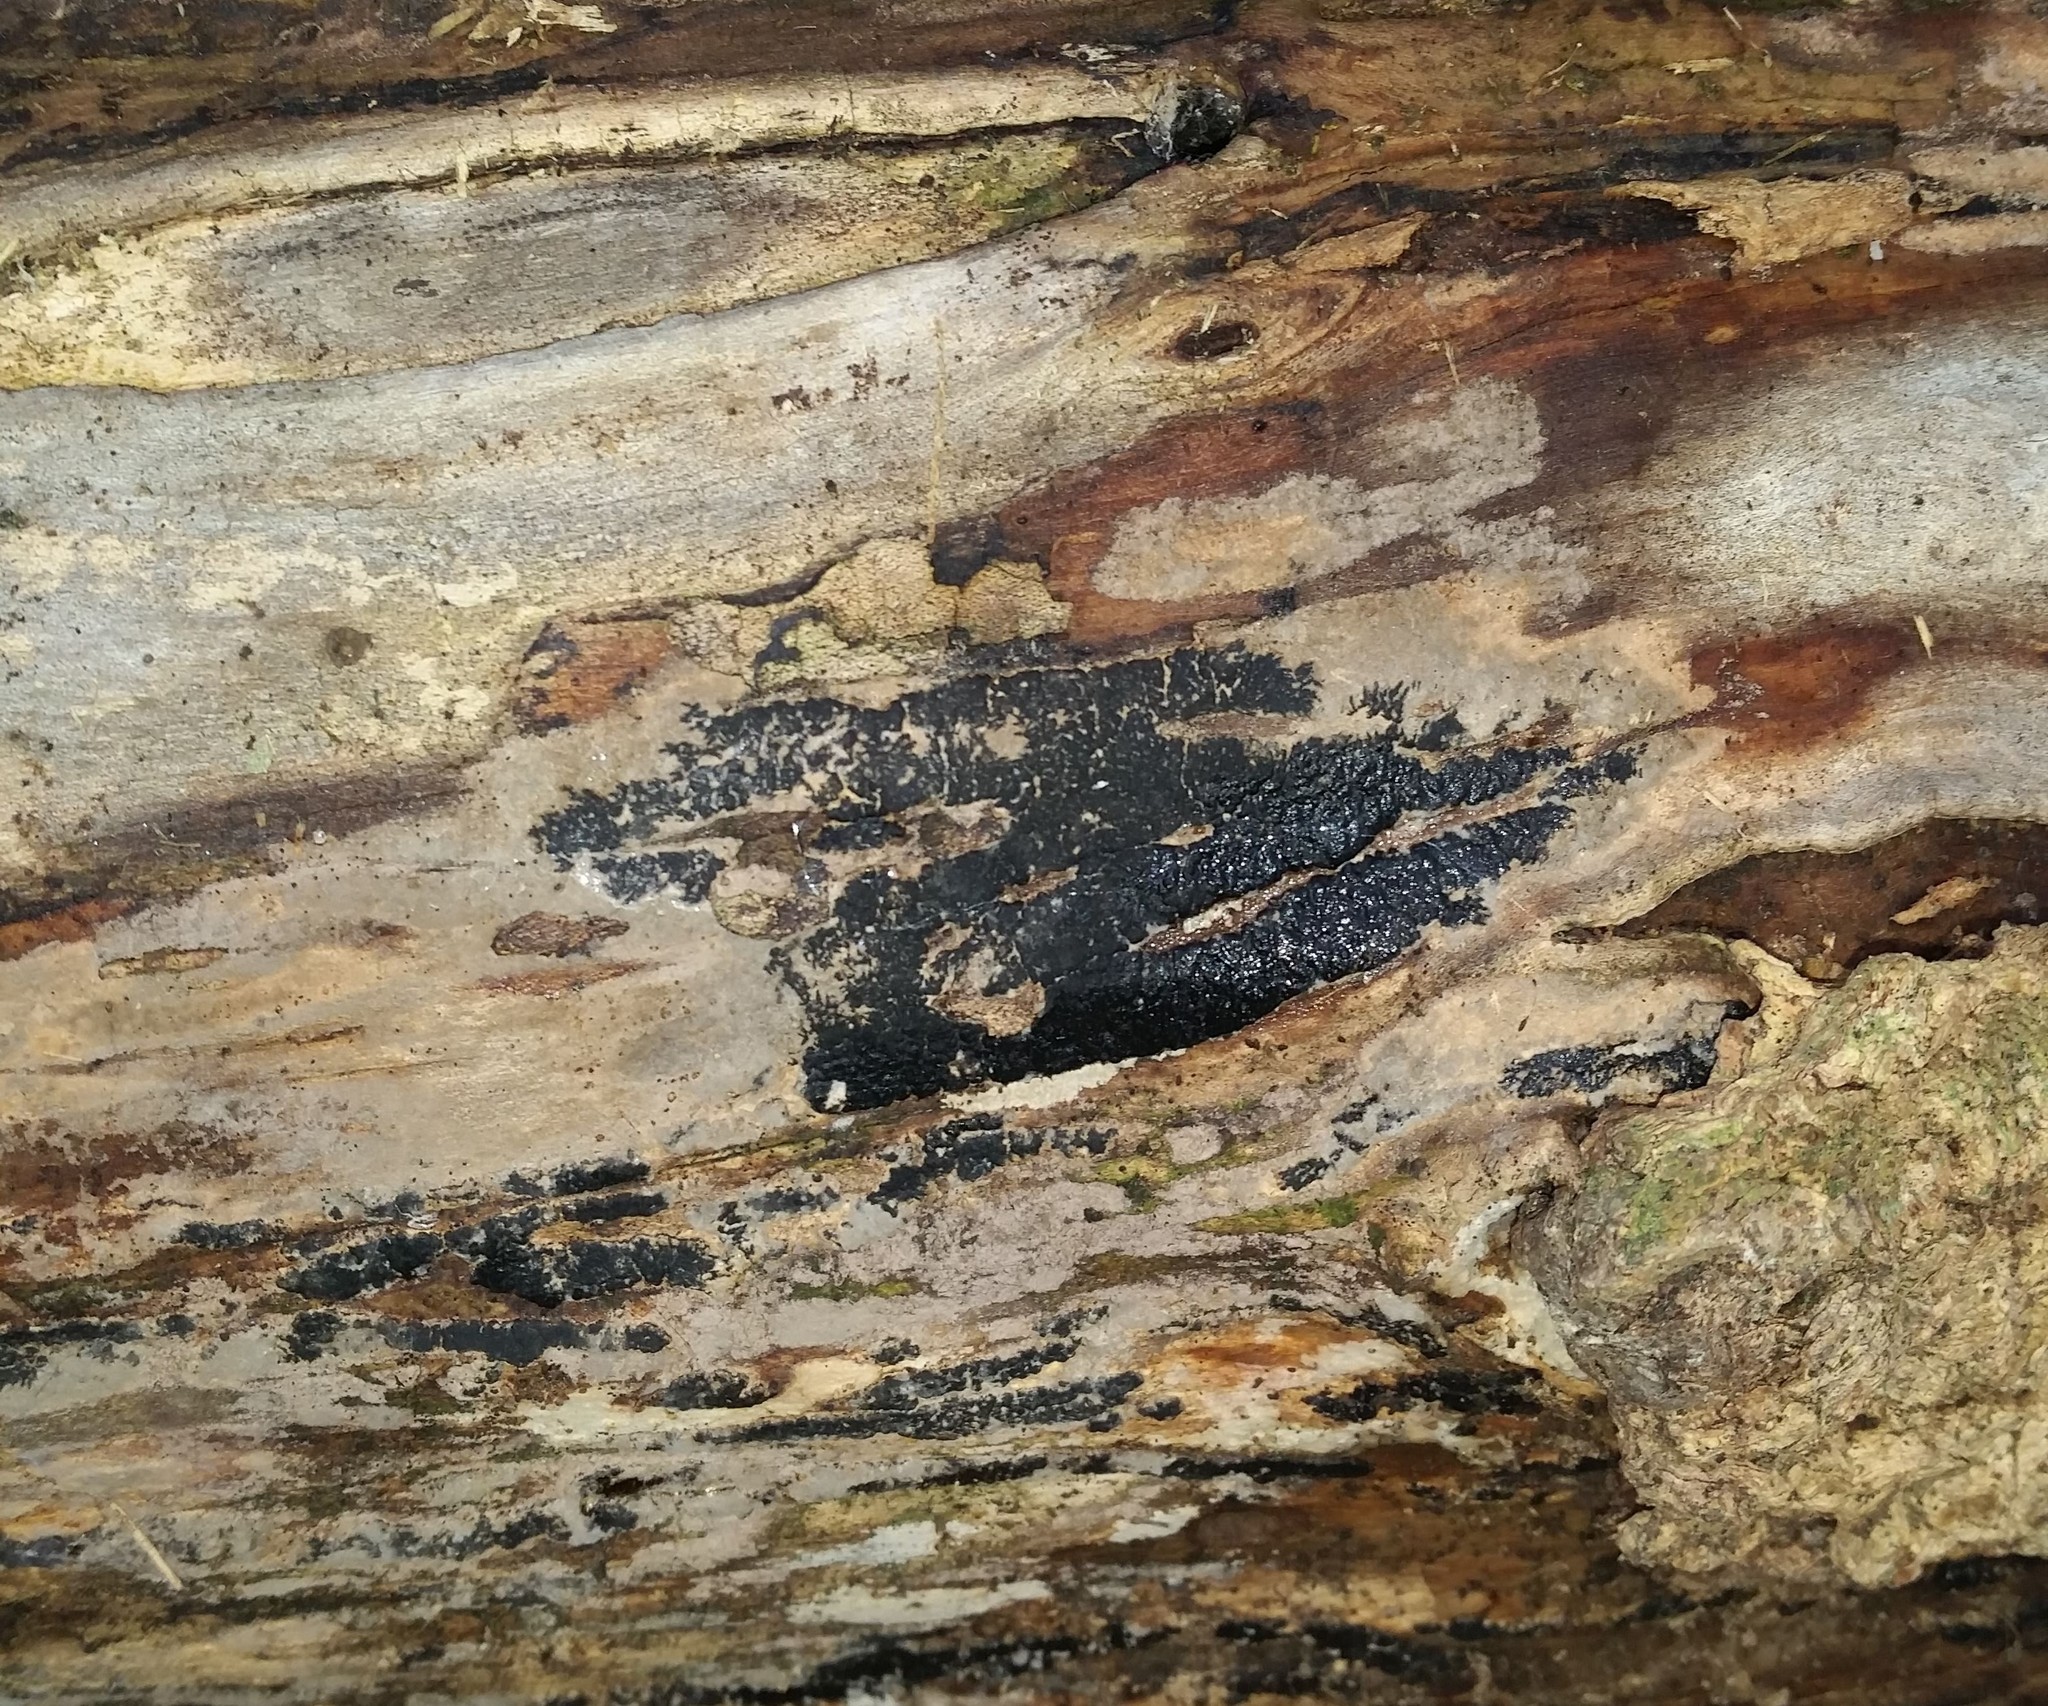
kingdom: Fungi
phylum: Ascomycota
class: Sordariomycetes
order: Xylariales
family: Xylariaceae
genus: Nemania
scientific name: Nemania beaumontii
